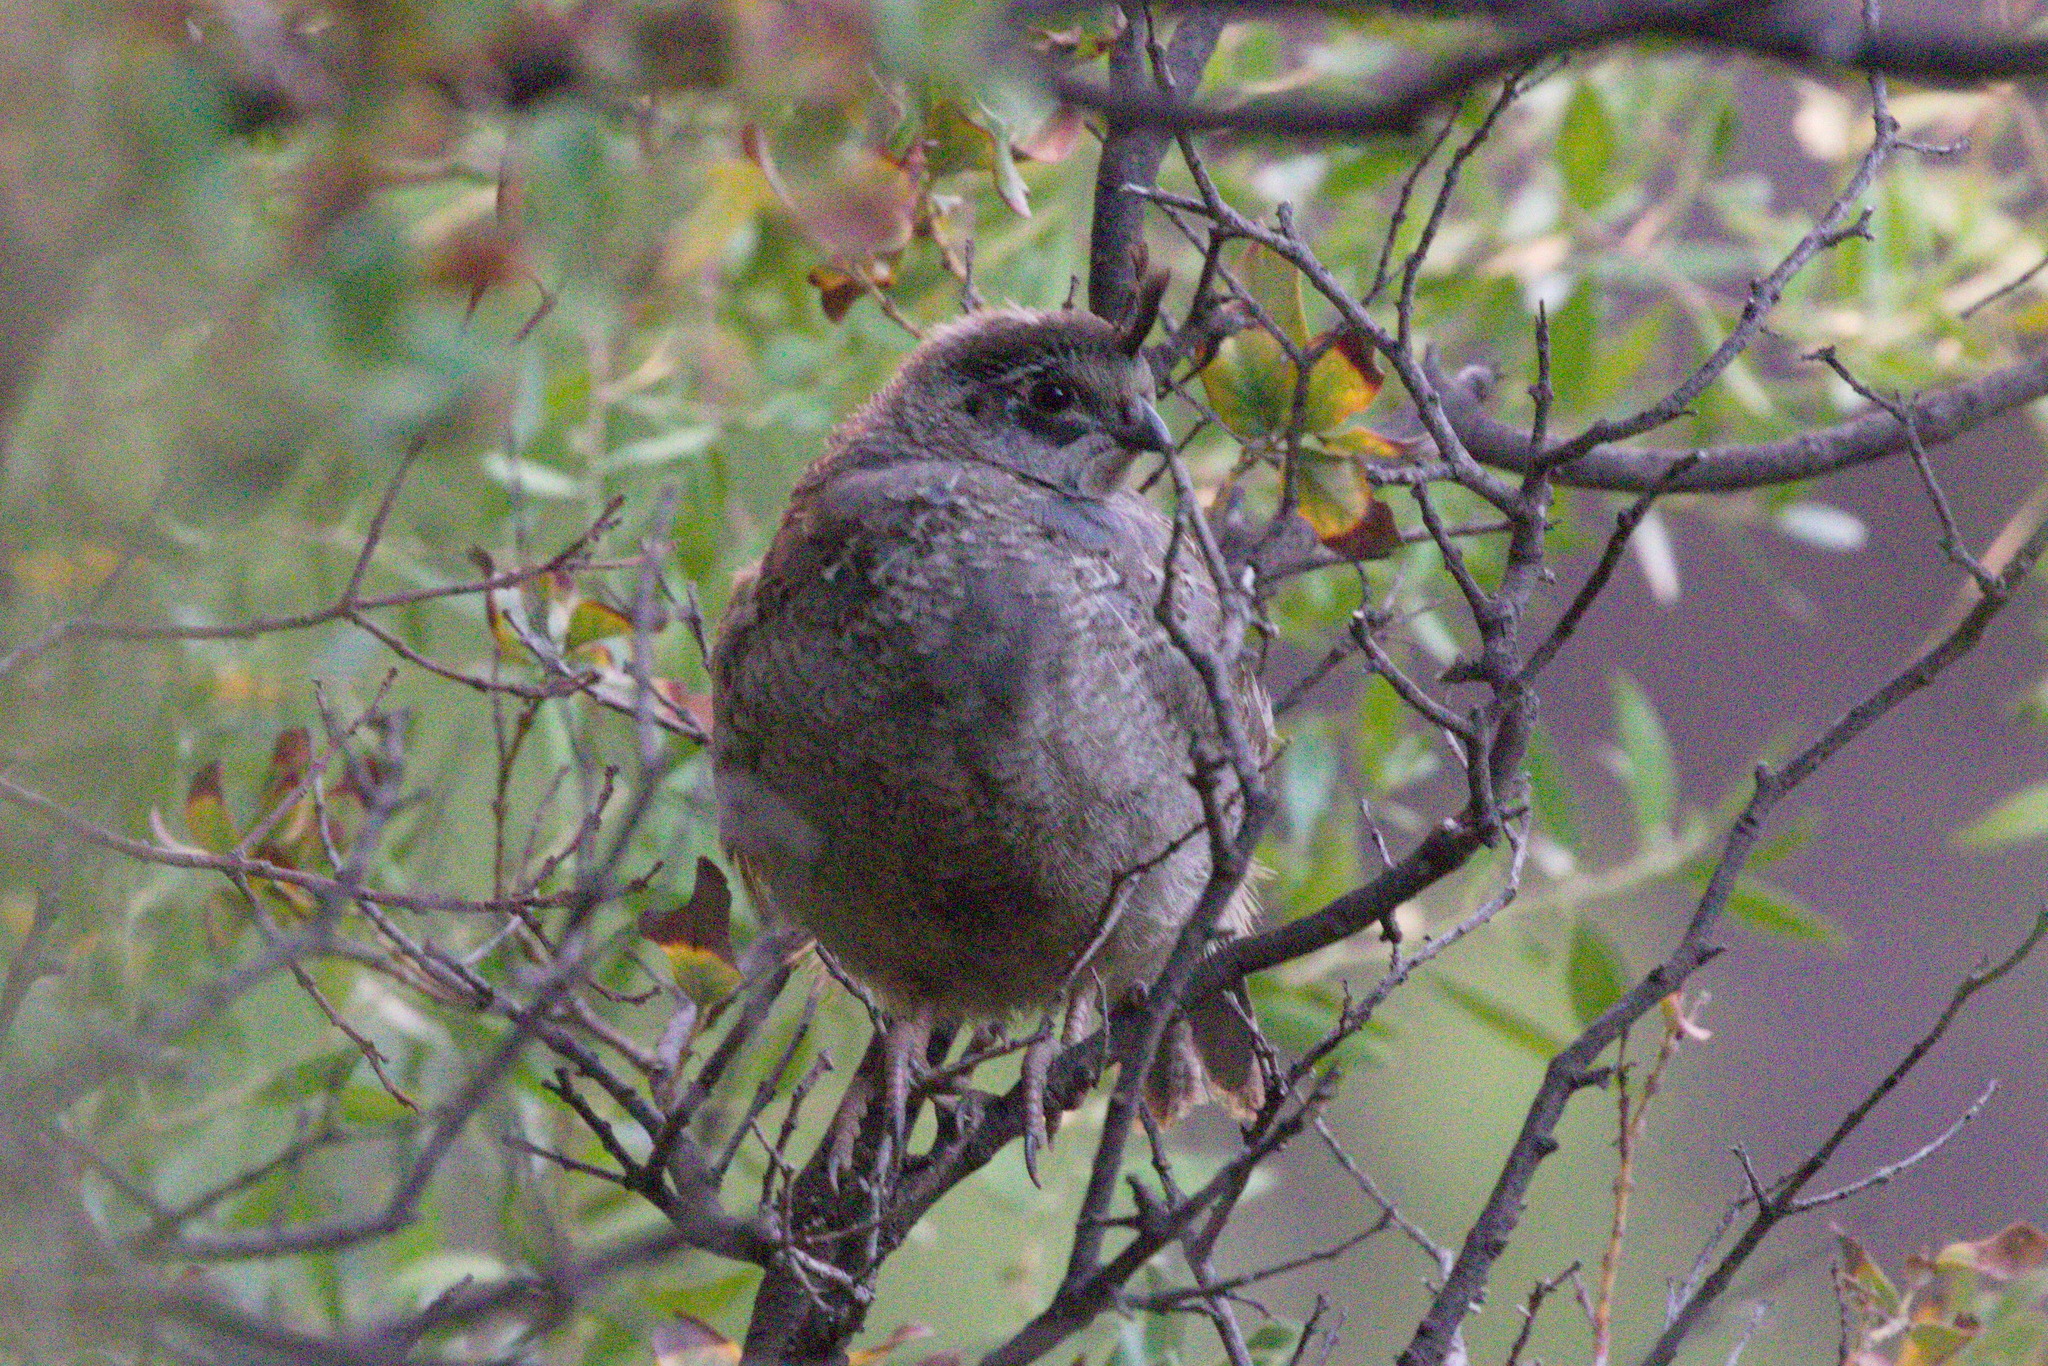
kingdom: Animalia
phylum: Chordata
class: Aves
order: Galliformes
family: Odontophoridae
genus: Callipepla
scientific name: Callipepla californica
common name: California quail
